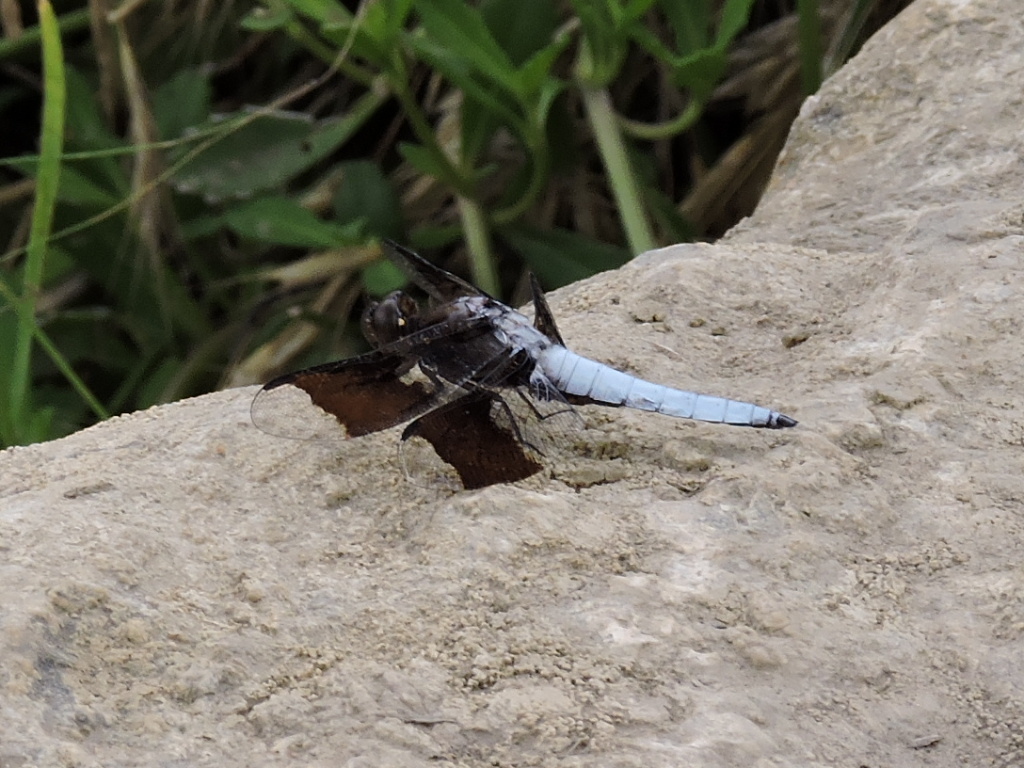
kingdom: Animalia
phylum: Arthropoda
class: Insecta
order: Odonata
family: Libellulidae
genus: Plathemis
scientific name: Plathemis lydia
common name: Common whitetail
